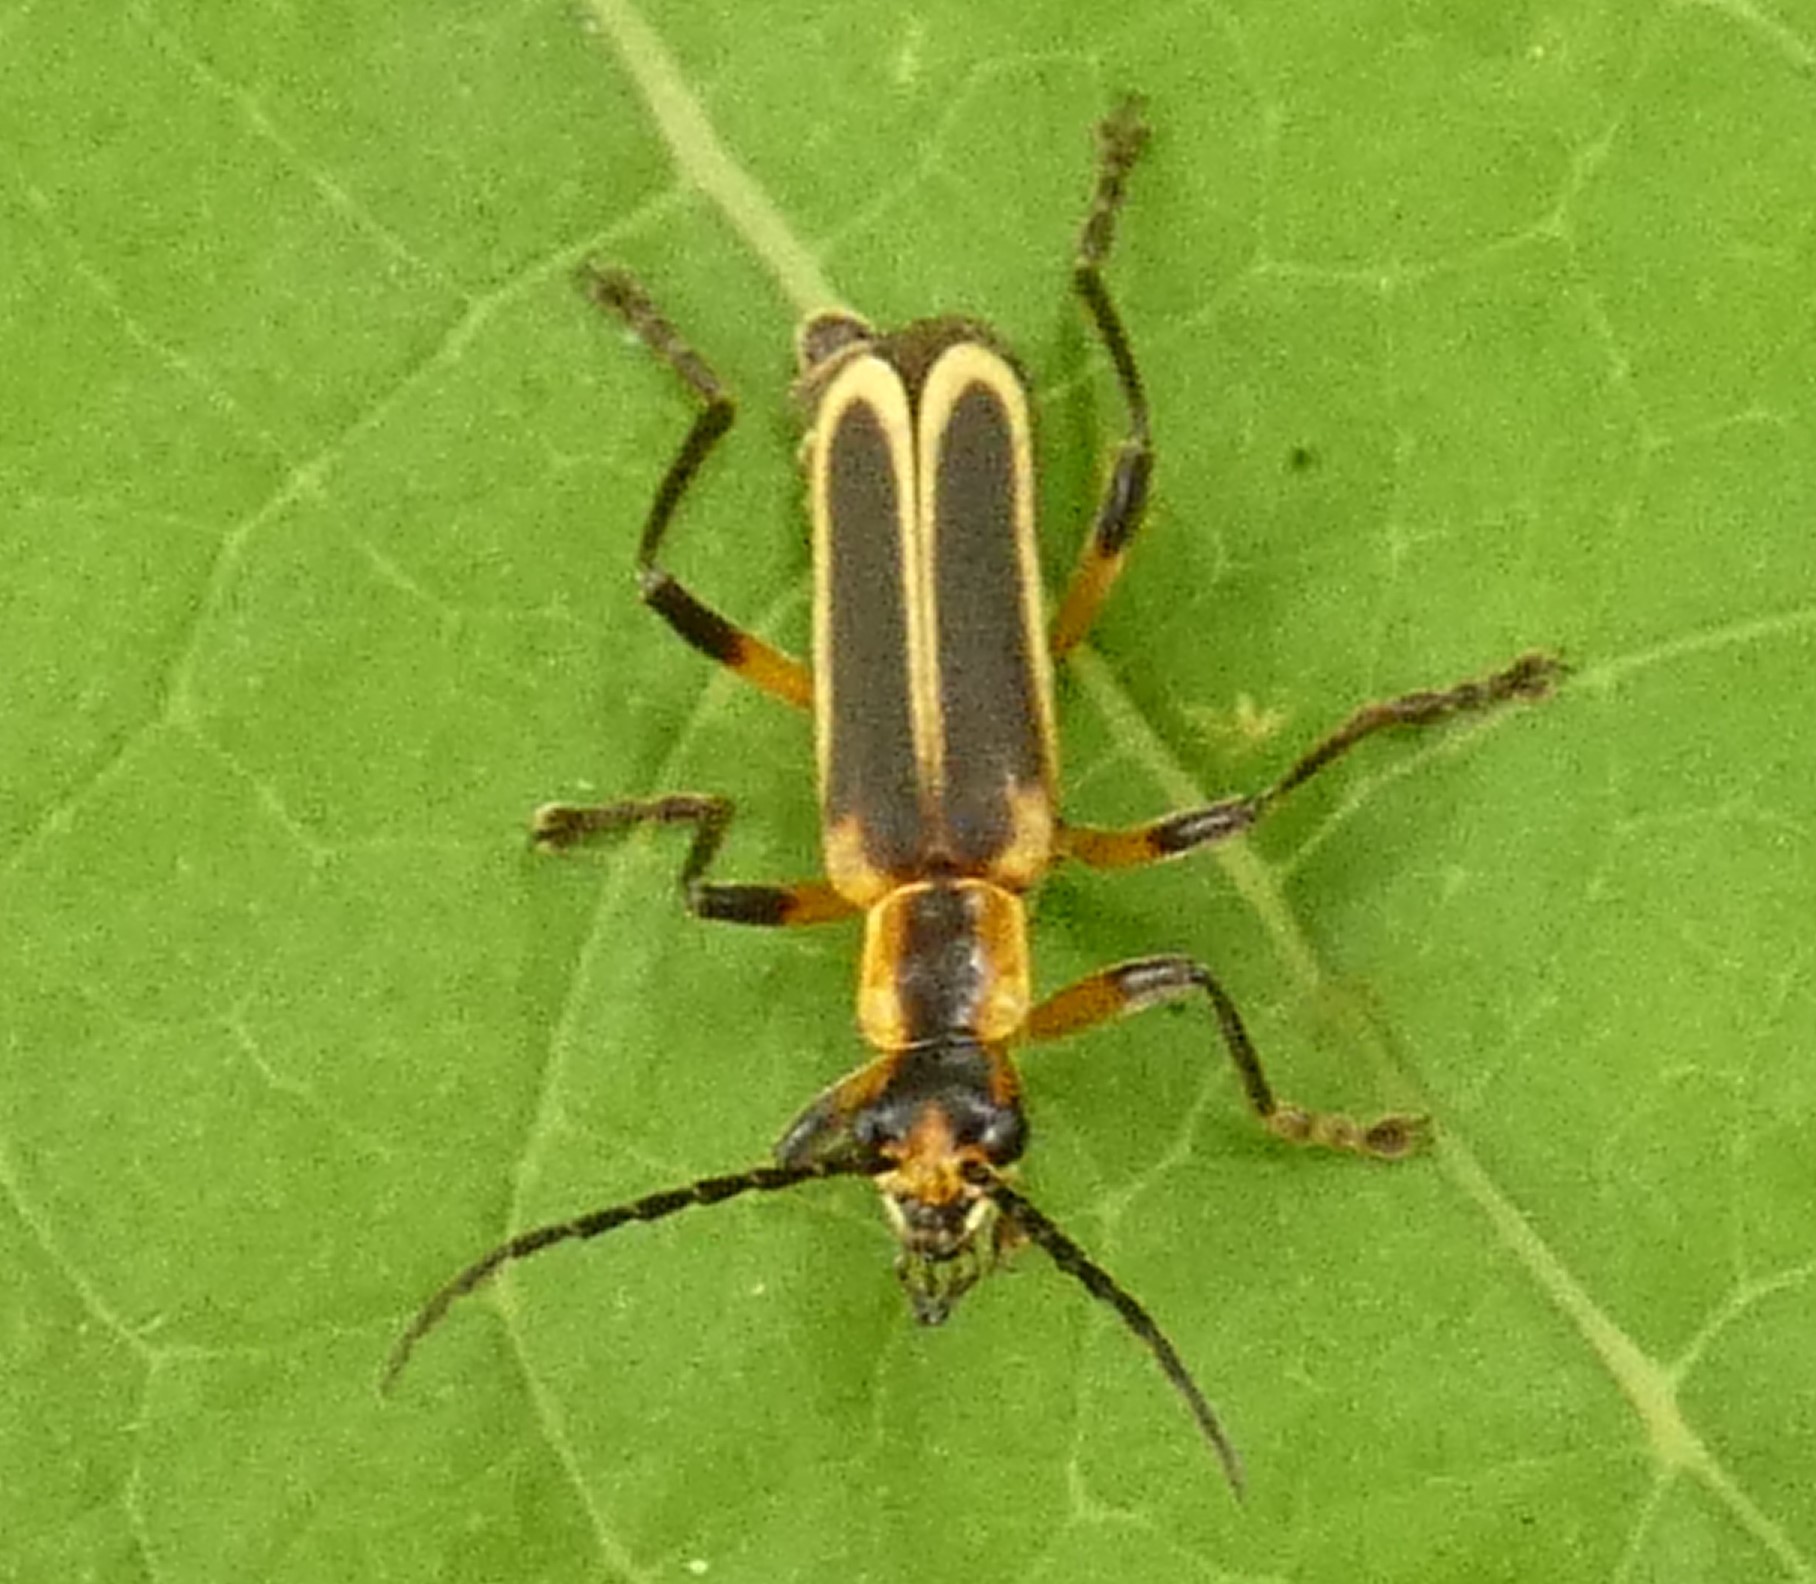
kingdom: Animalia
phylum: Arthropoda
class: Insecta
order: Coleoptera
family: Cantharidae
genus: Chauliognathus
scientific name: Chauliognathus marginatus
